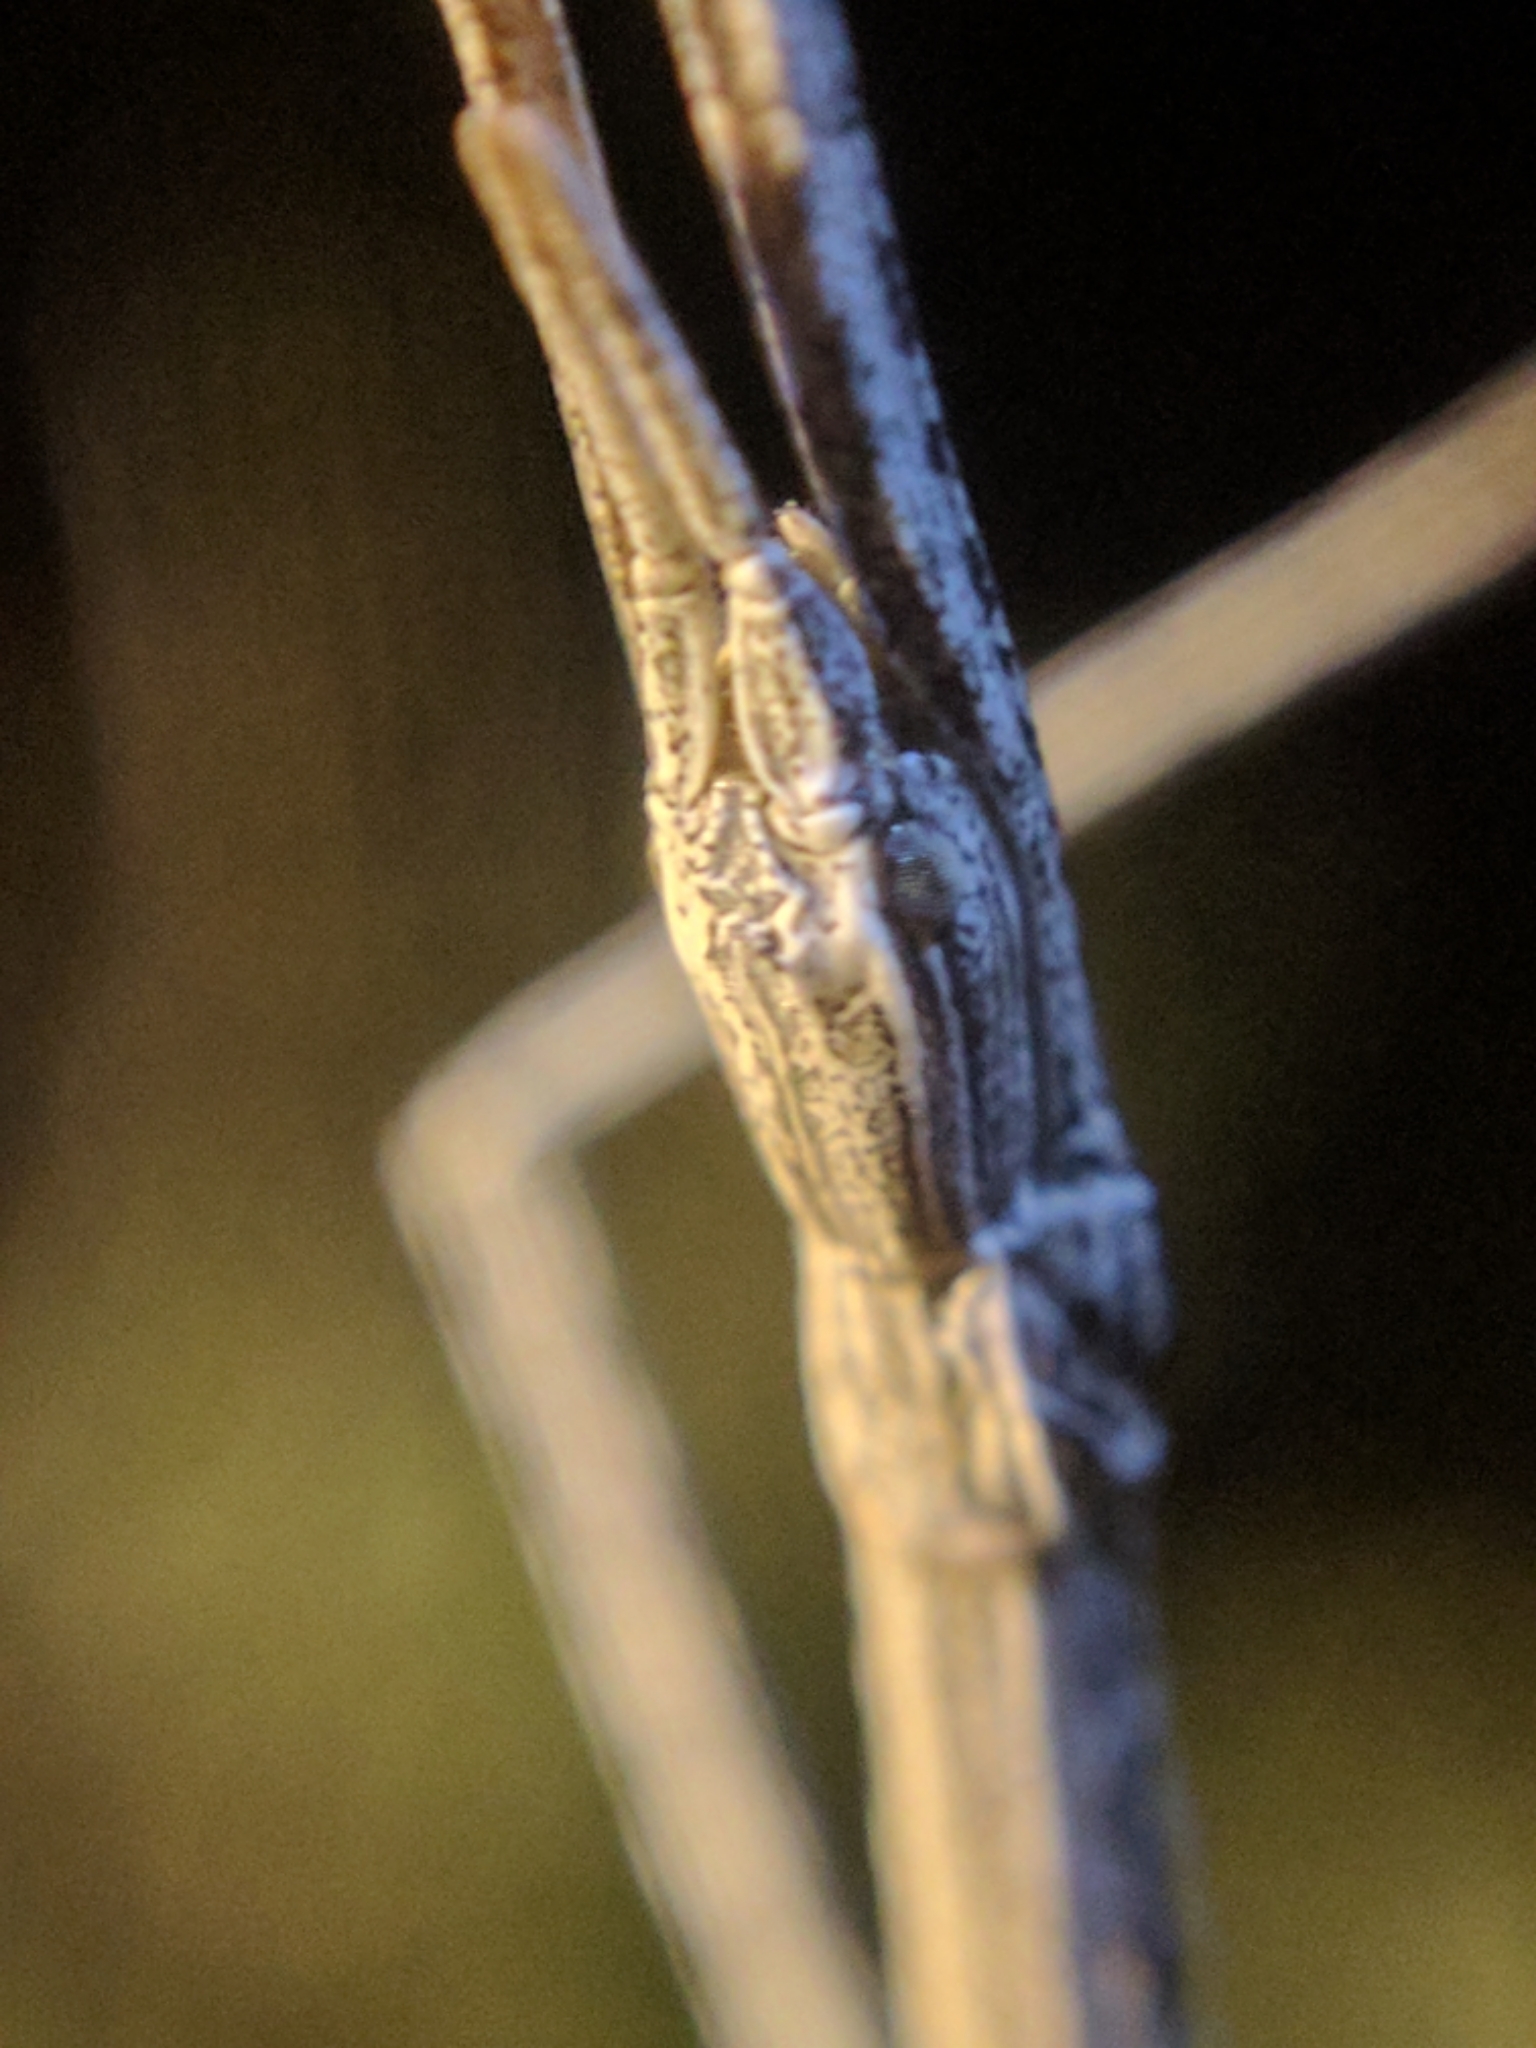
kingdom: Animalia
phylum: Arthropoda
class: Insecta
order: Phasmida
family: Heteronemiidae
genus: Parabacillus
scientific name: Parabacillus hesperus
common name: Western short-horned walkingstick
